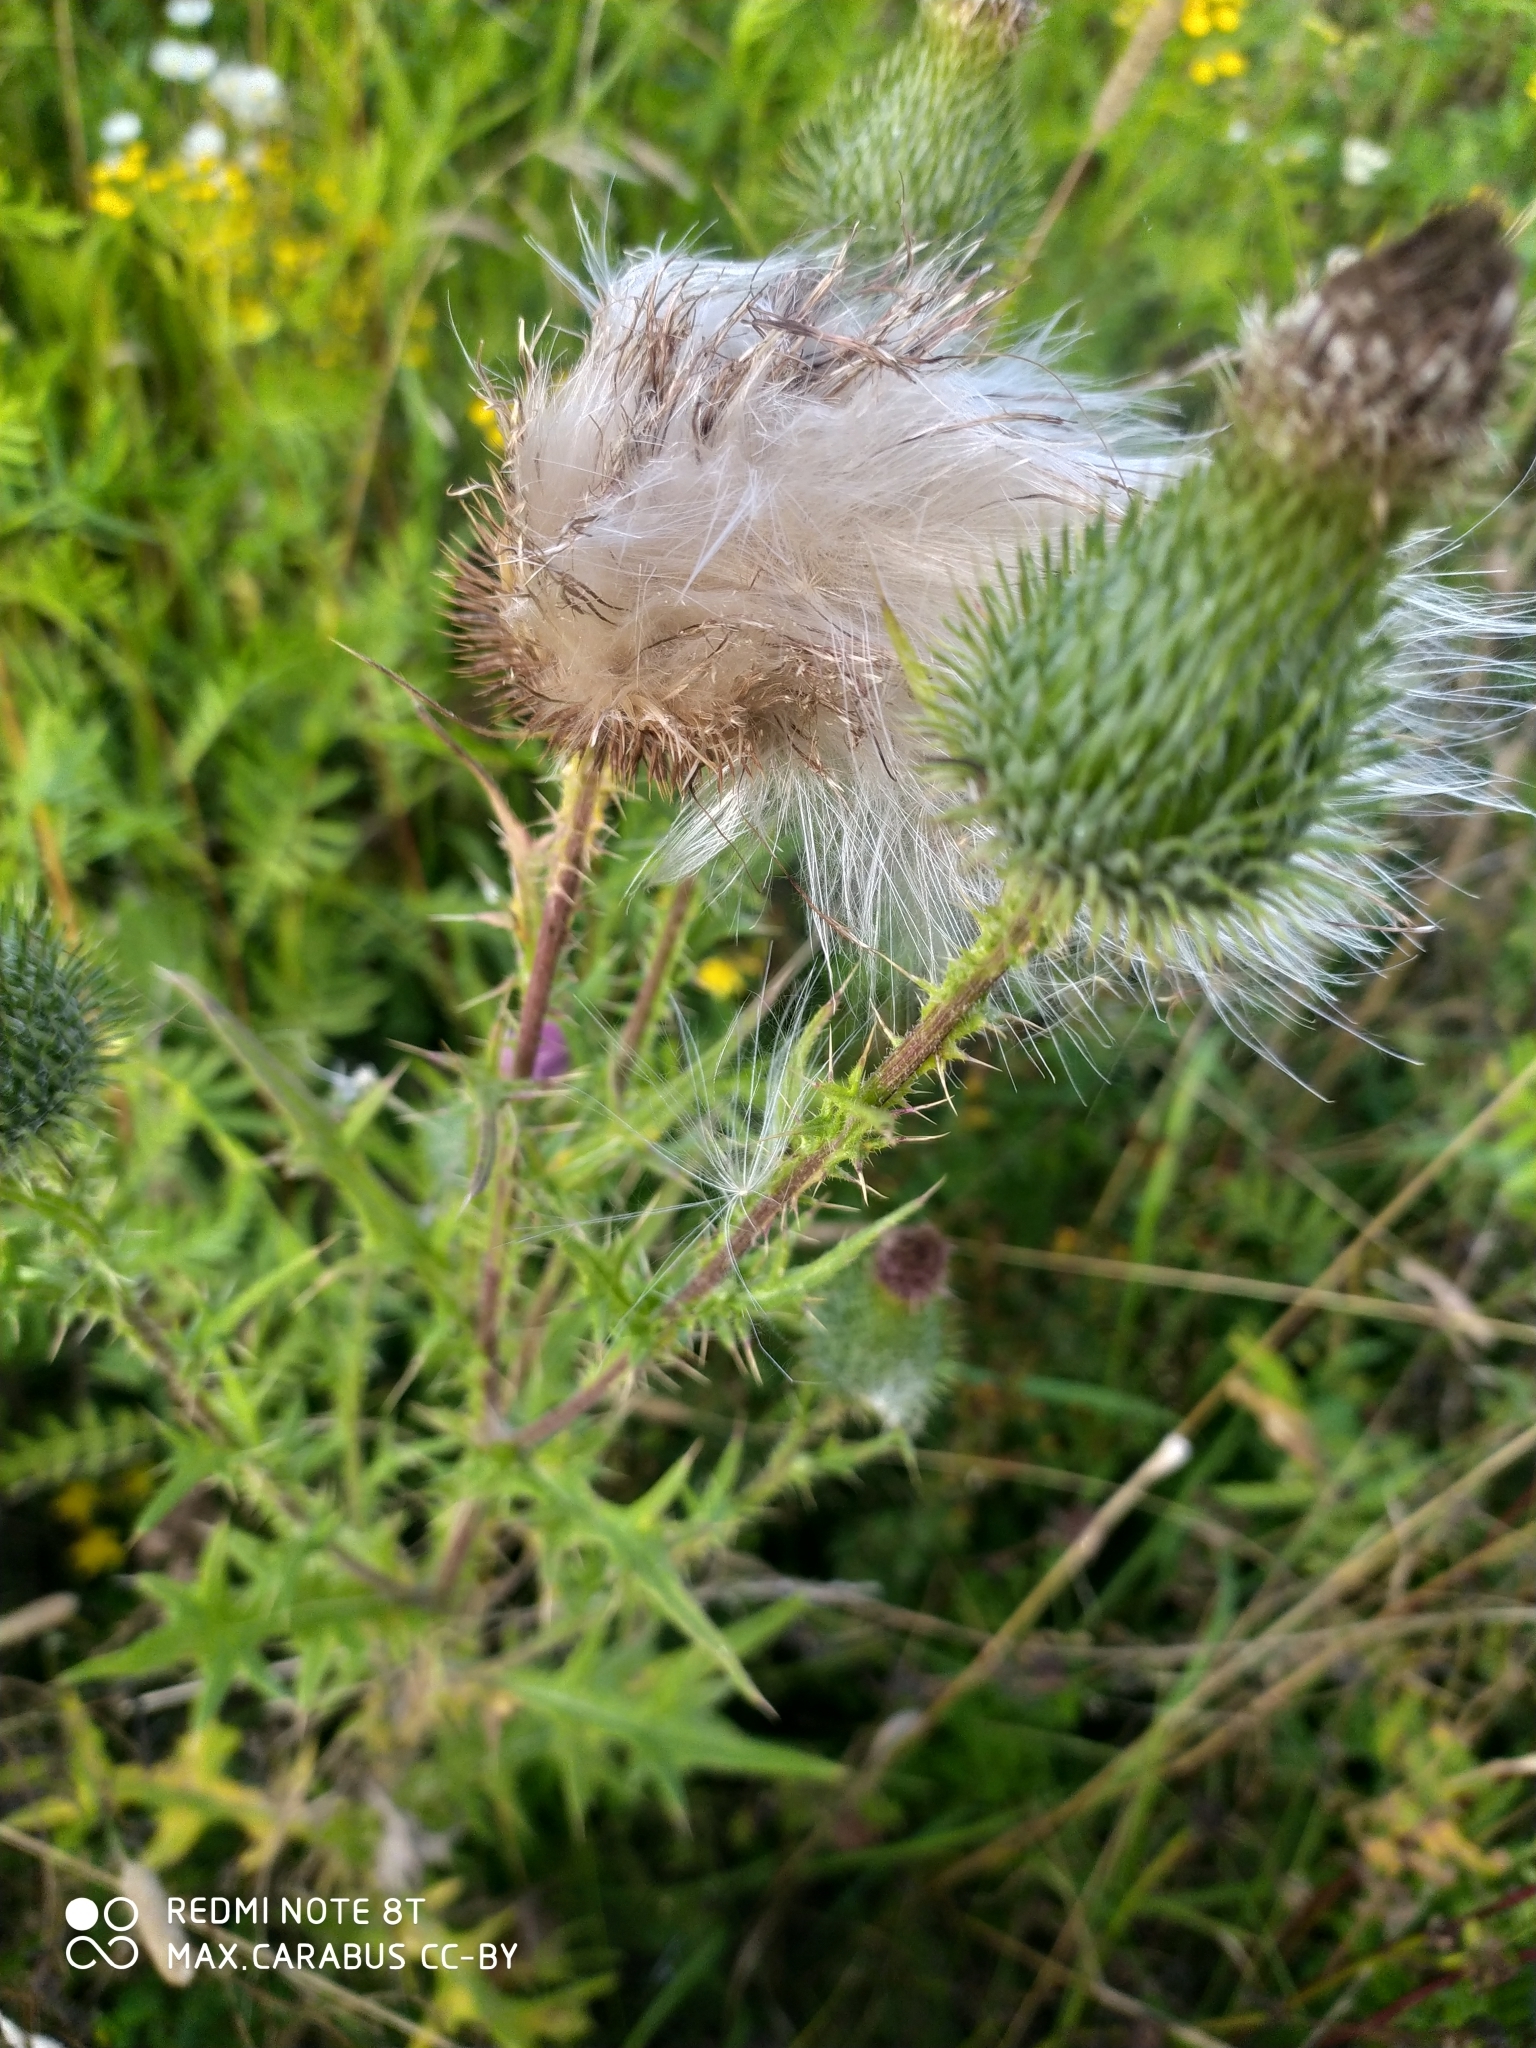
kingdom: Plantae
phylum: Tracheophyta
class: Magnoliopsida
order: Asterales
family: Asteraceae
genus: Cirsium
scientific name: Cirsium vulgare
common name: Bull thistle
